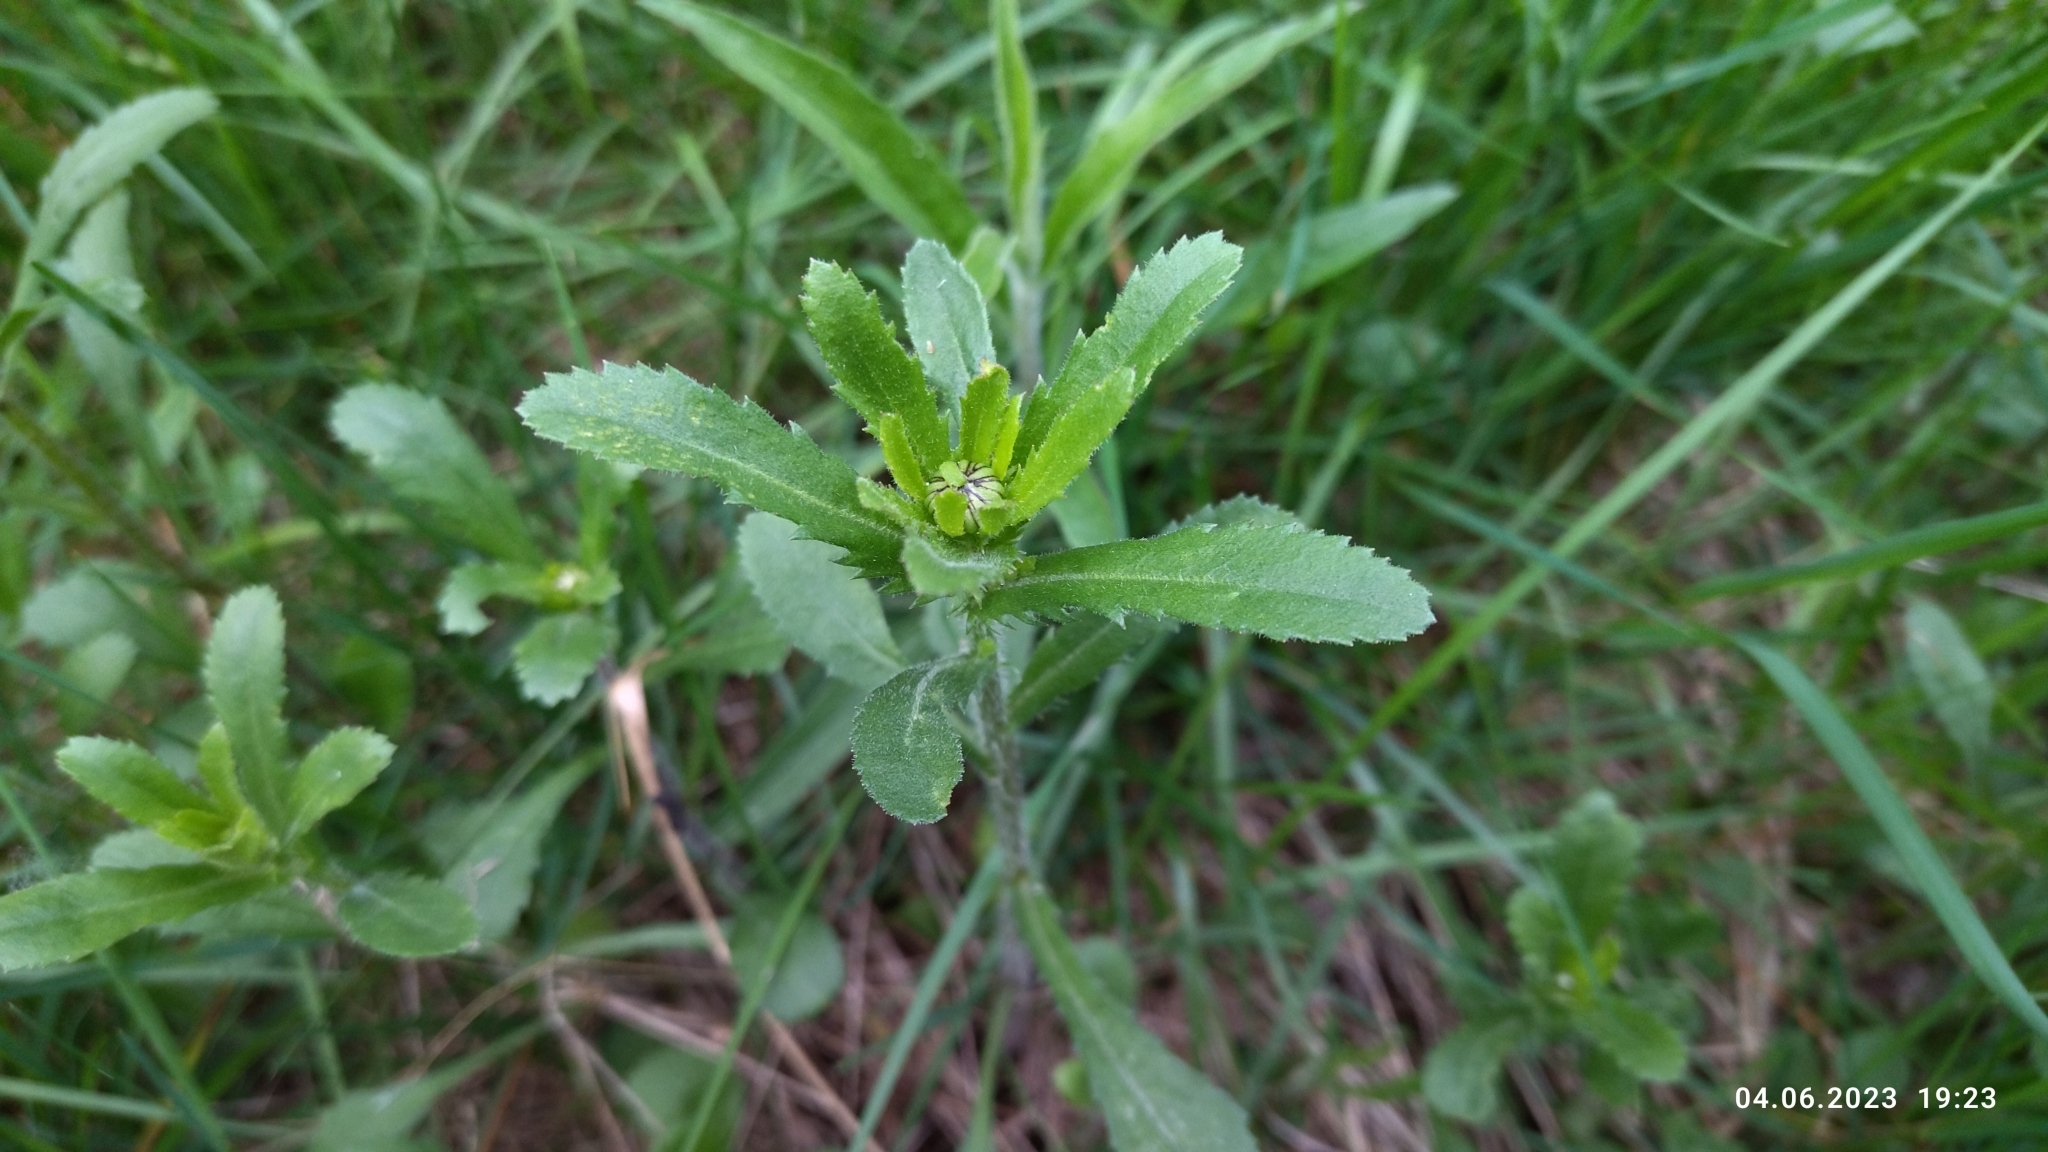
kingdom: Plantae
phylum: Tracheophyta
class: Magnoliopsida
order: Asterales
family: Asteraceae
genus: Leucanthemum
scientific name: Leucanthemum vulgare
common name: Oxeye daisy
